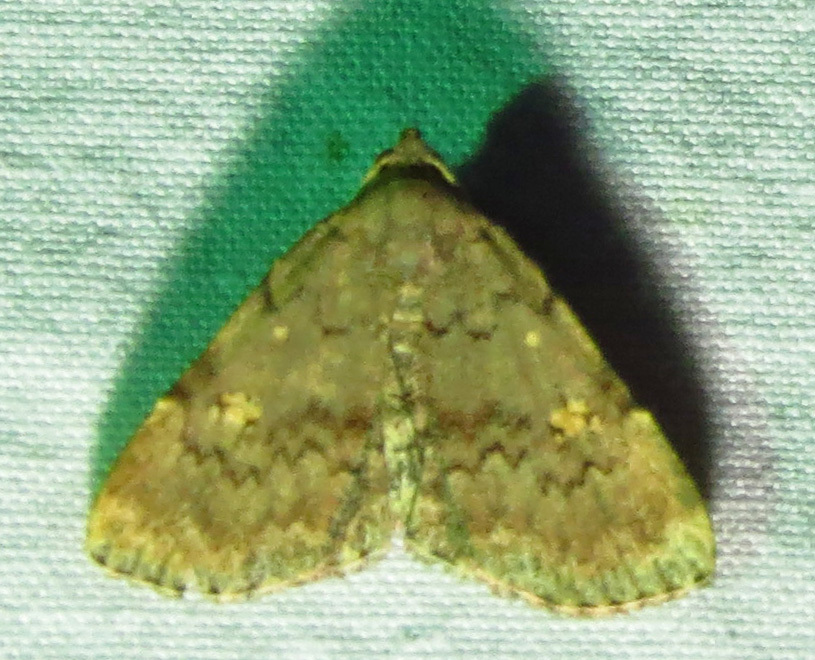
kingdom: Animalia
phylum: Arthropoda
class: Insecta
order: Lepidoptera
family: Erebidae
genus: Idia
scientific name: Idia aemula
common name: Common idia moth
